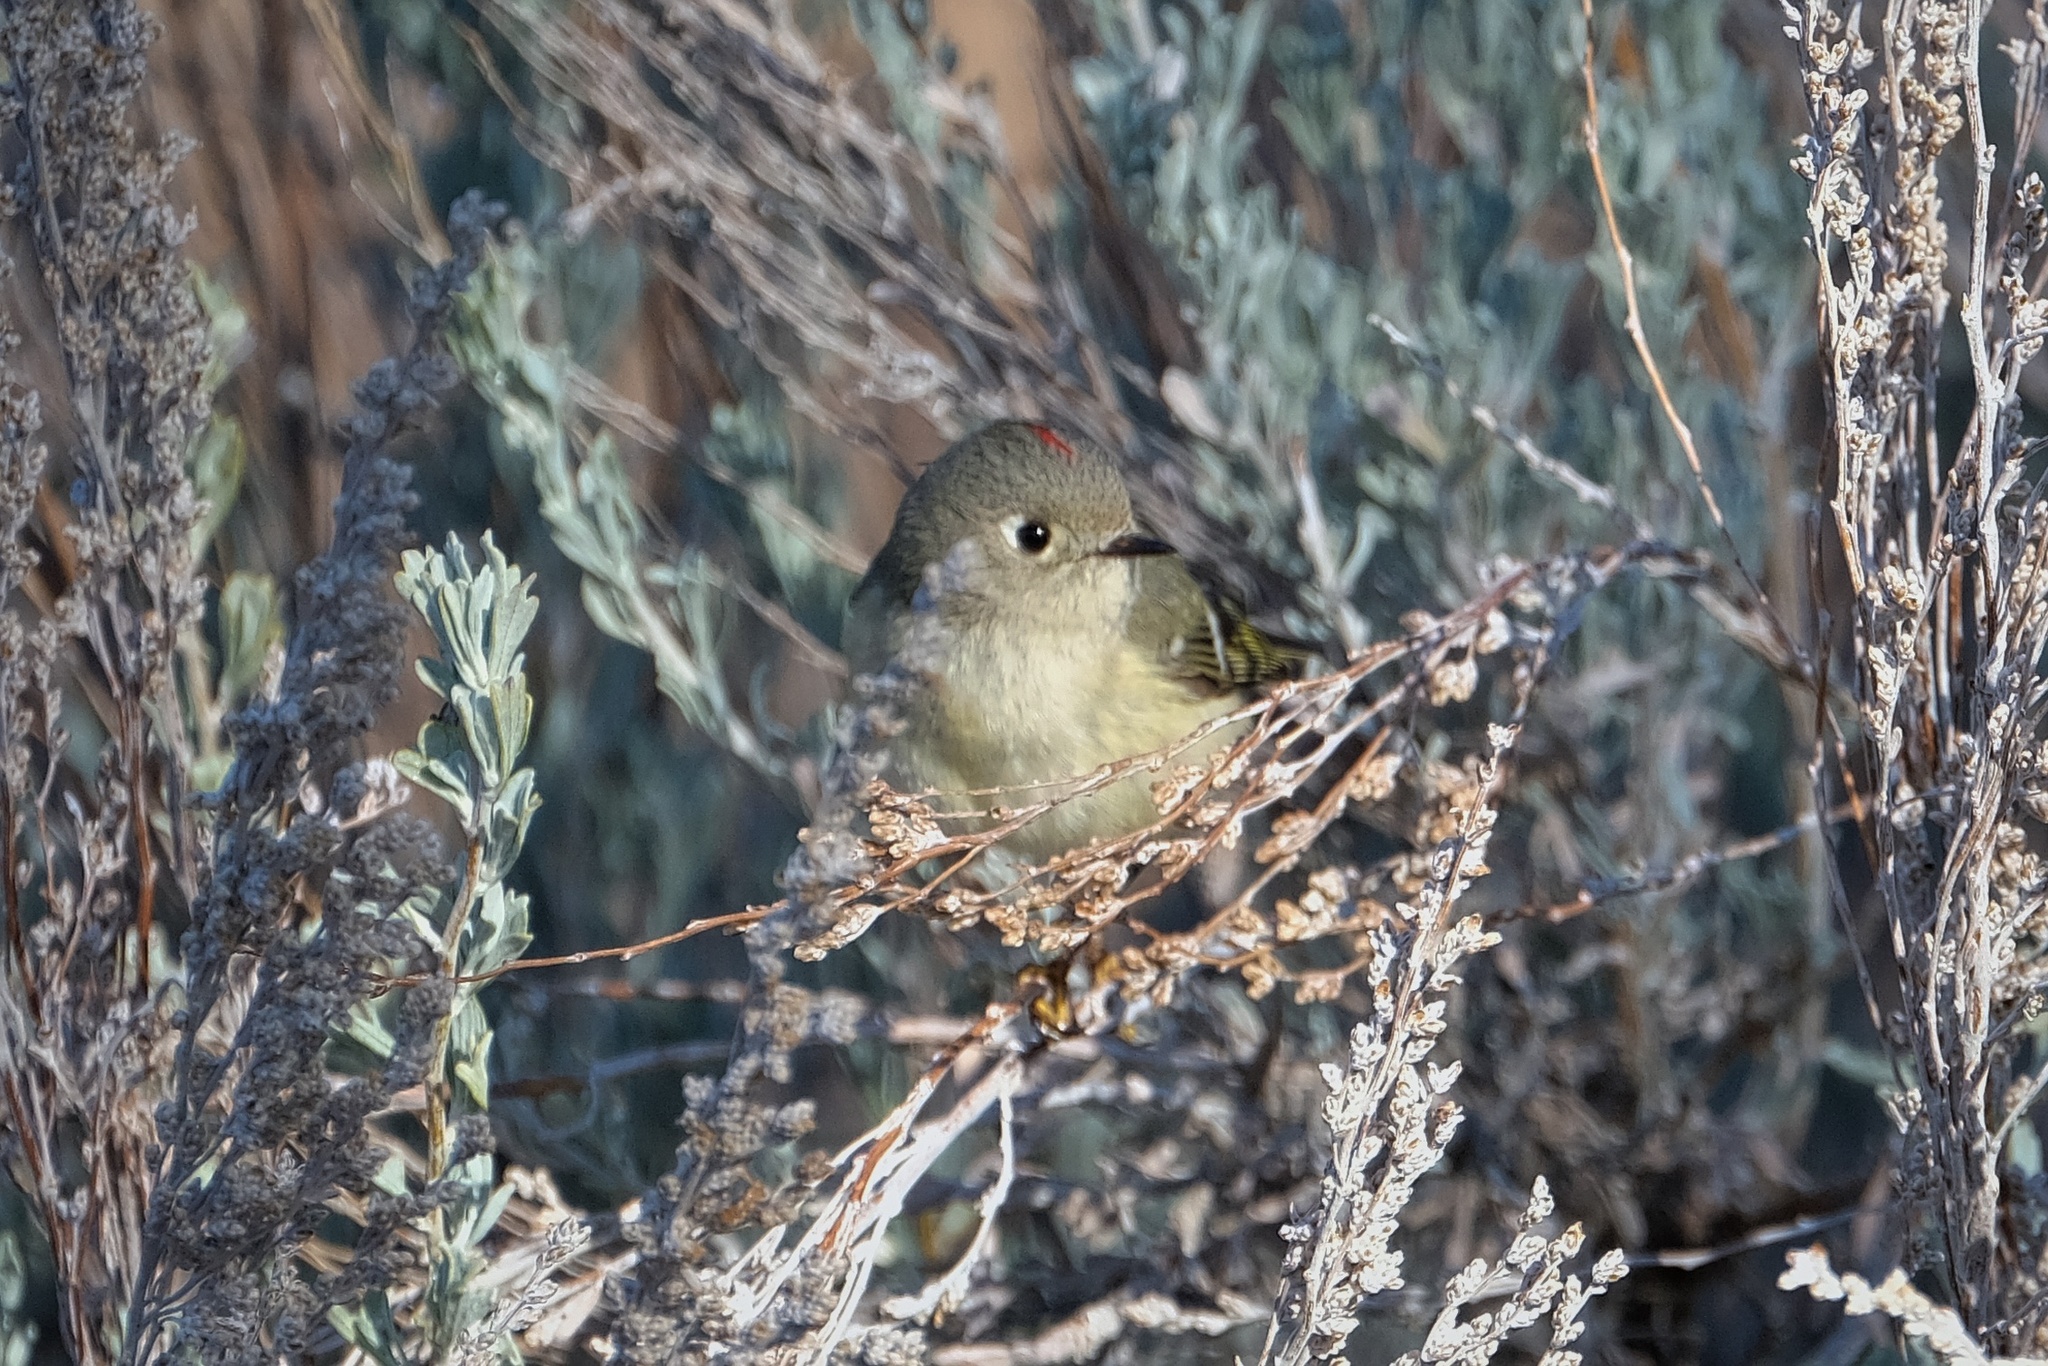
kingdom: Animalia
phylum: Chordata
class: Aves
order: Passeriformes
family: Regulidae
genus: Regulus
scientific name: Regulus calendula
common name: Ruby-crowned kinglet
